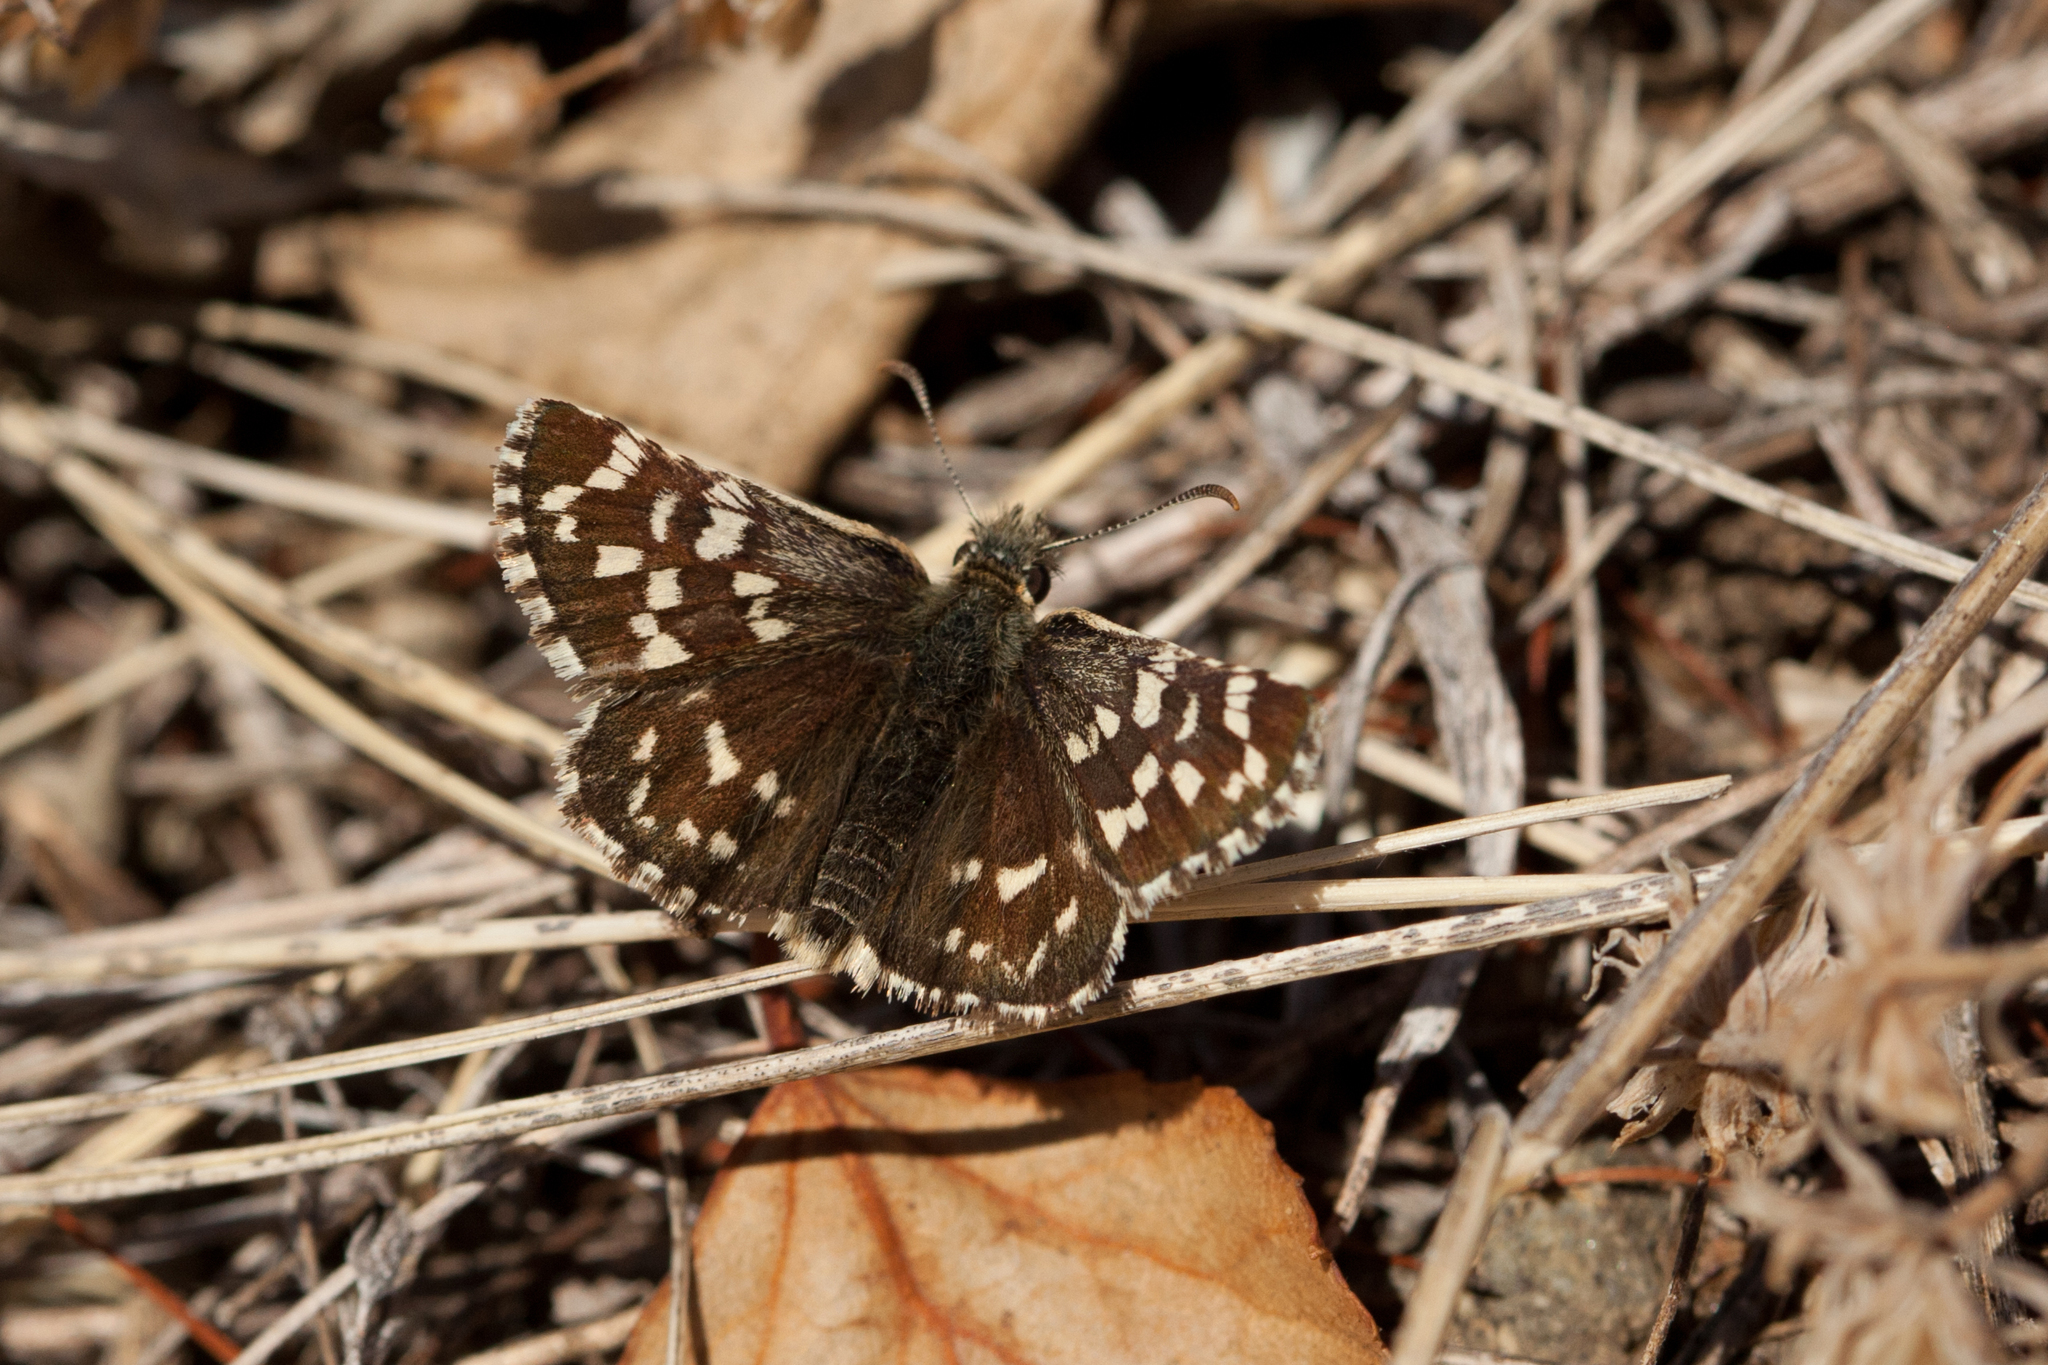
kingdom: Animalia
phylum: Arthropoda
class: Insecta
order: Lepidoptera
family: Hesperiidae
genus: Pyrgus
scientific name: Pyrgus maculatus
